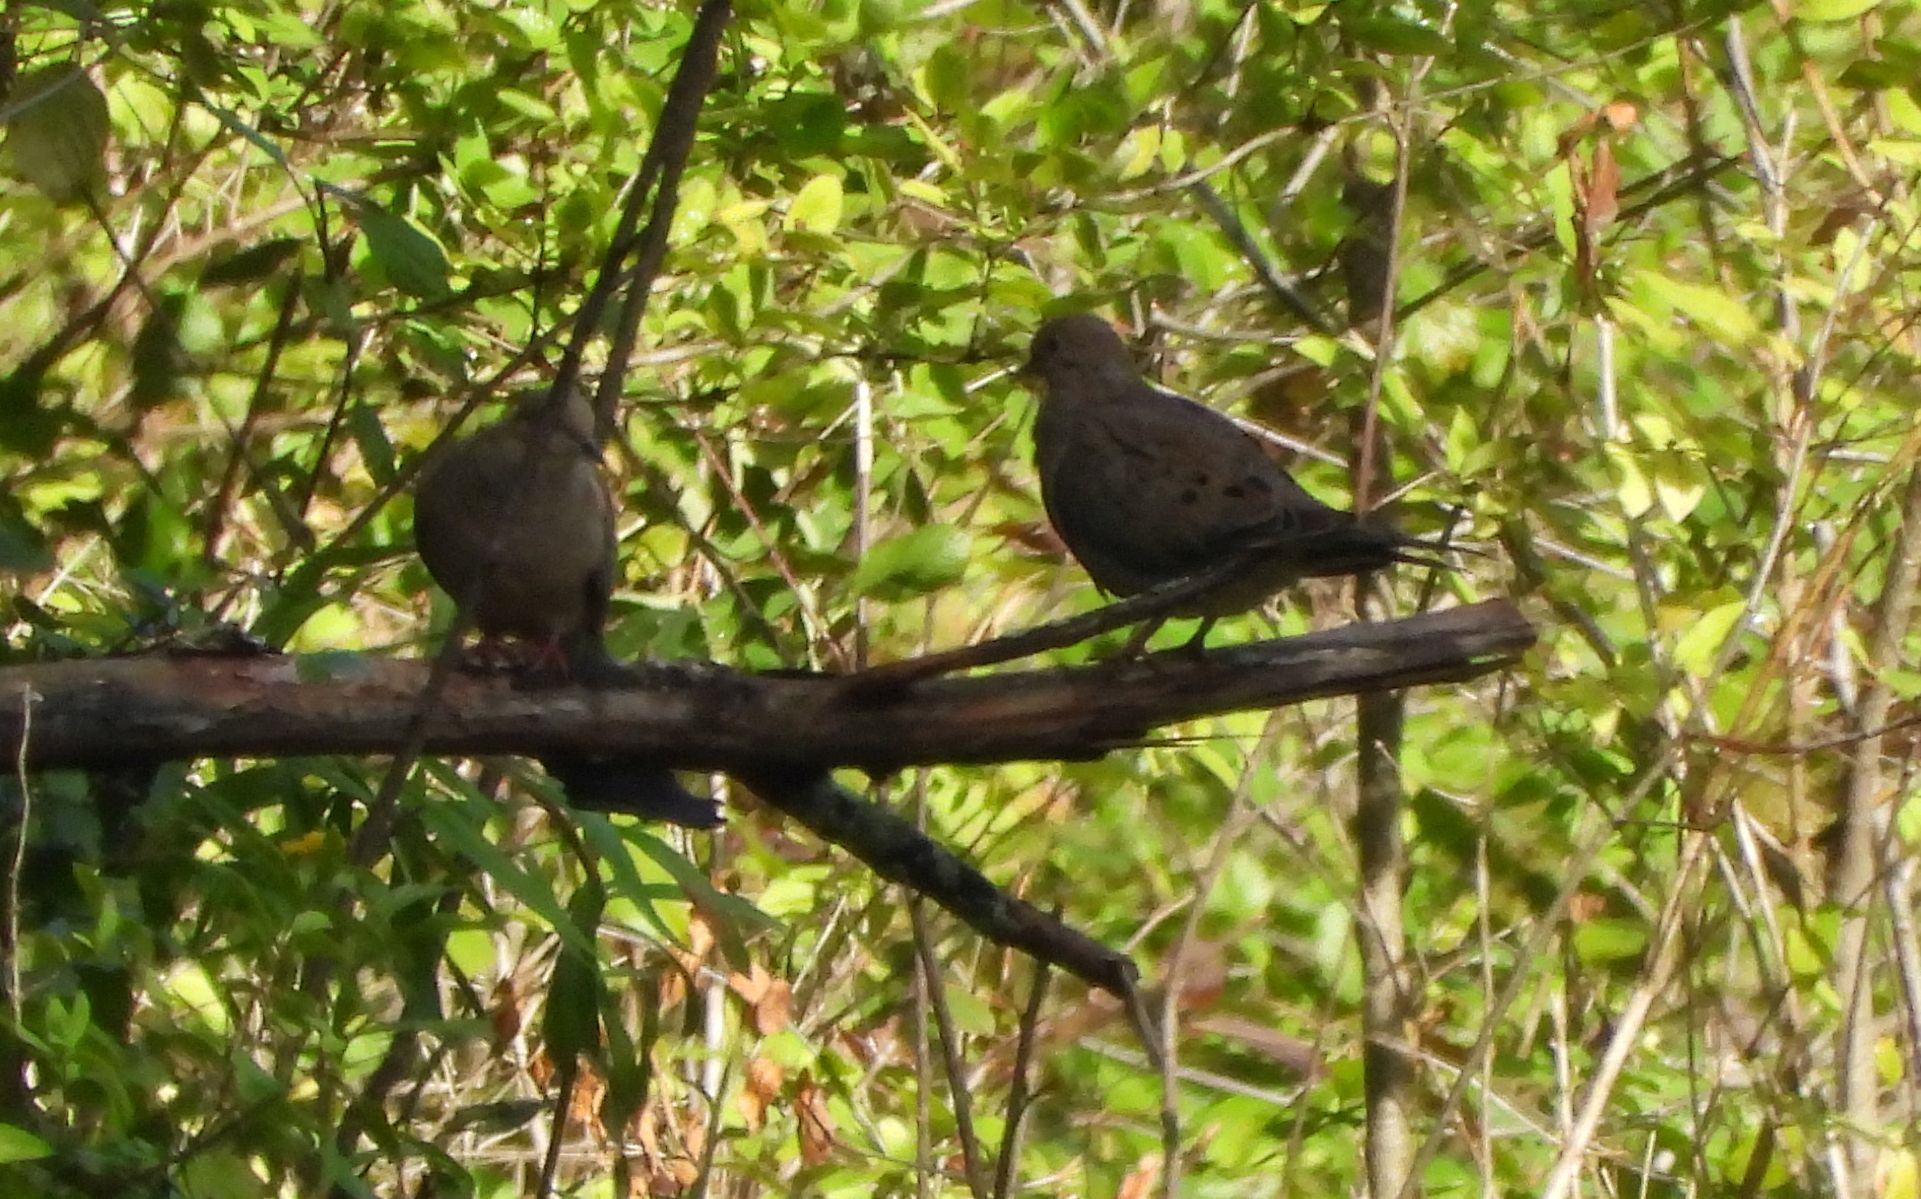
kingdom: Animalia
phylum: Chordata
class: Aves
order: Columbiformes
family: Columbidae
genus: Zenaida
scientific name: Zenaida macroura
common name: Mourning dove
